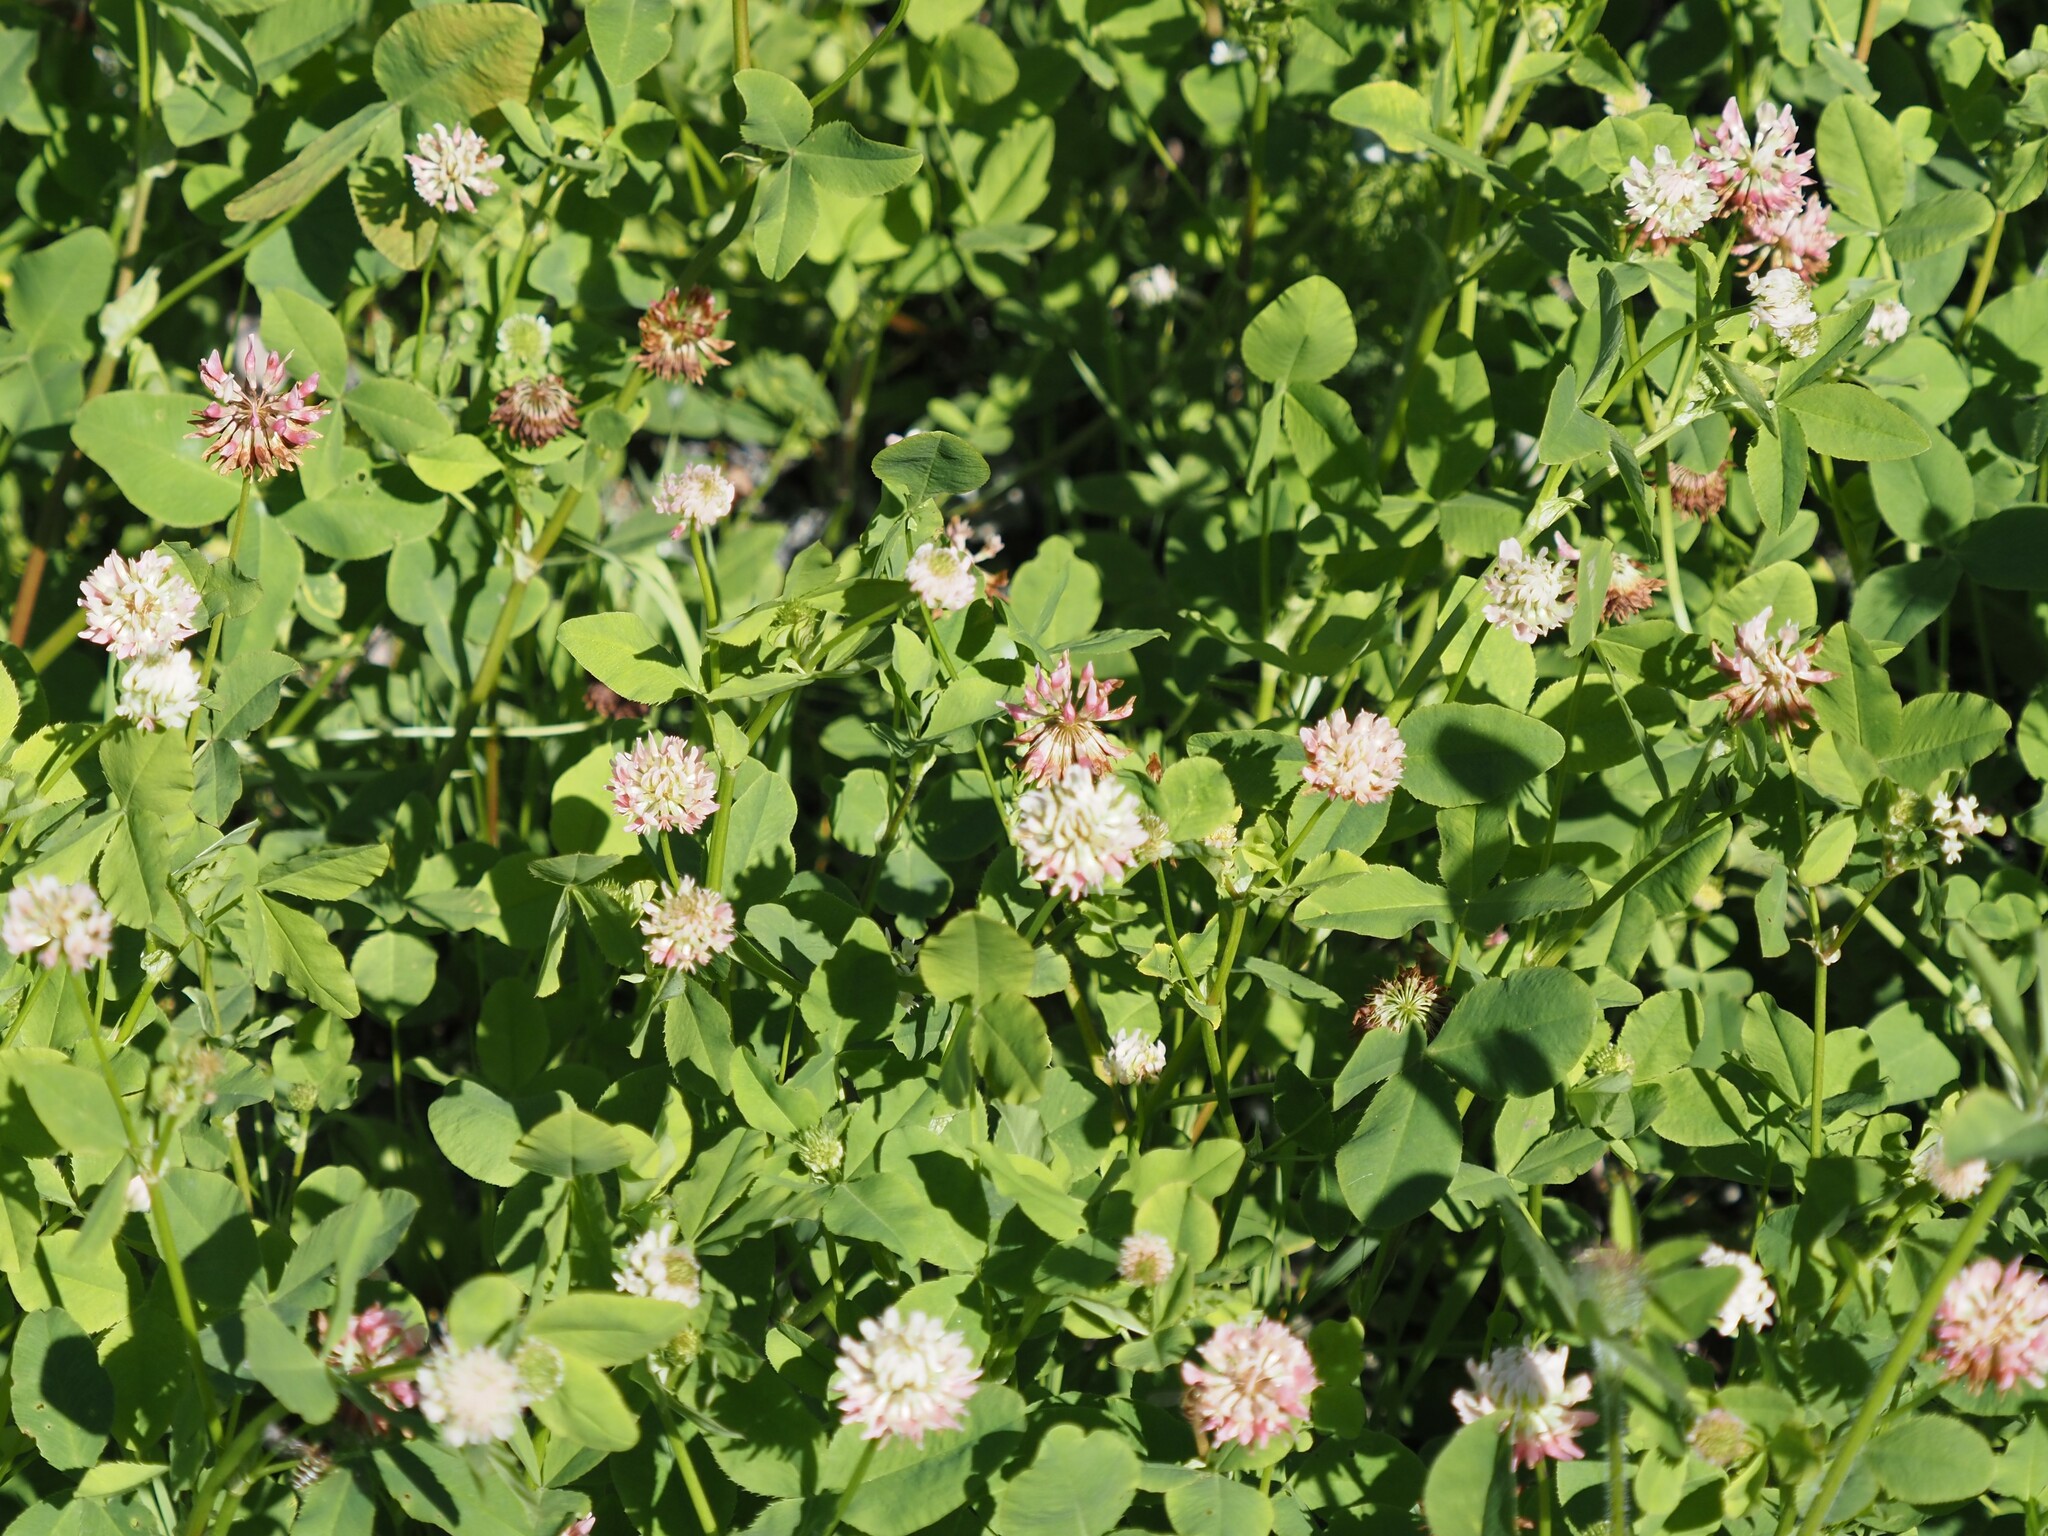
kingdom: Plantae
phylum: Tracheophyta
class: Magnoliopsida
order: Fabales
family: Fabaceae
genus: Trifolium
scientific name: Trifolium hybridum
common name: Alsike clover
